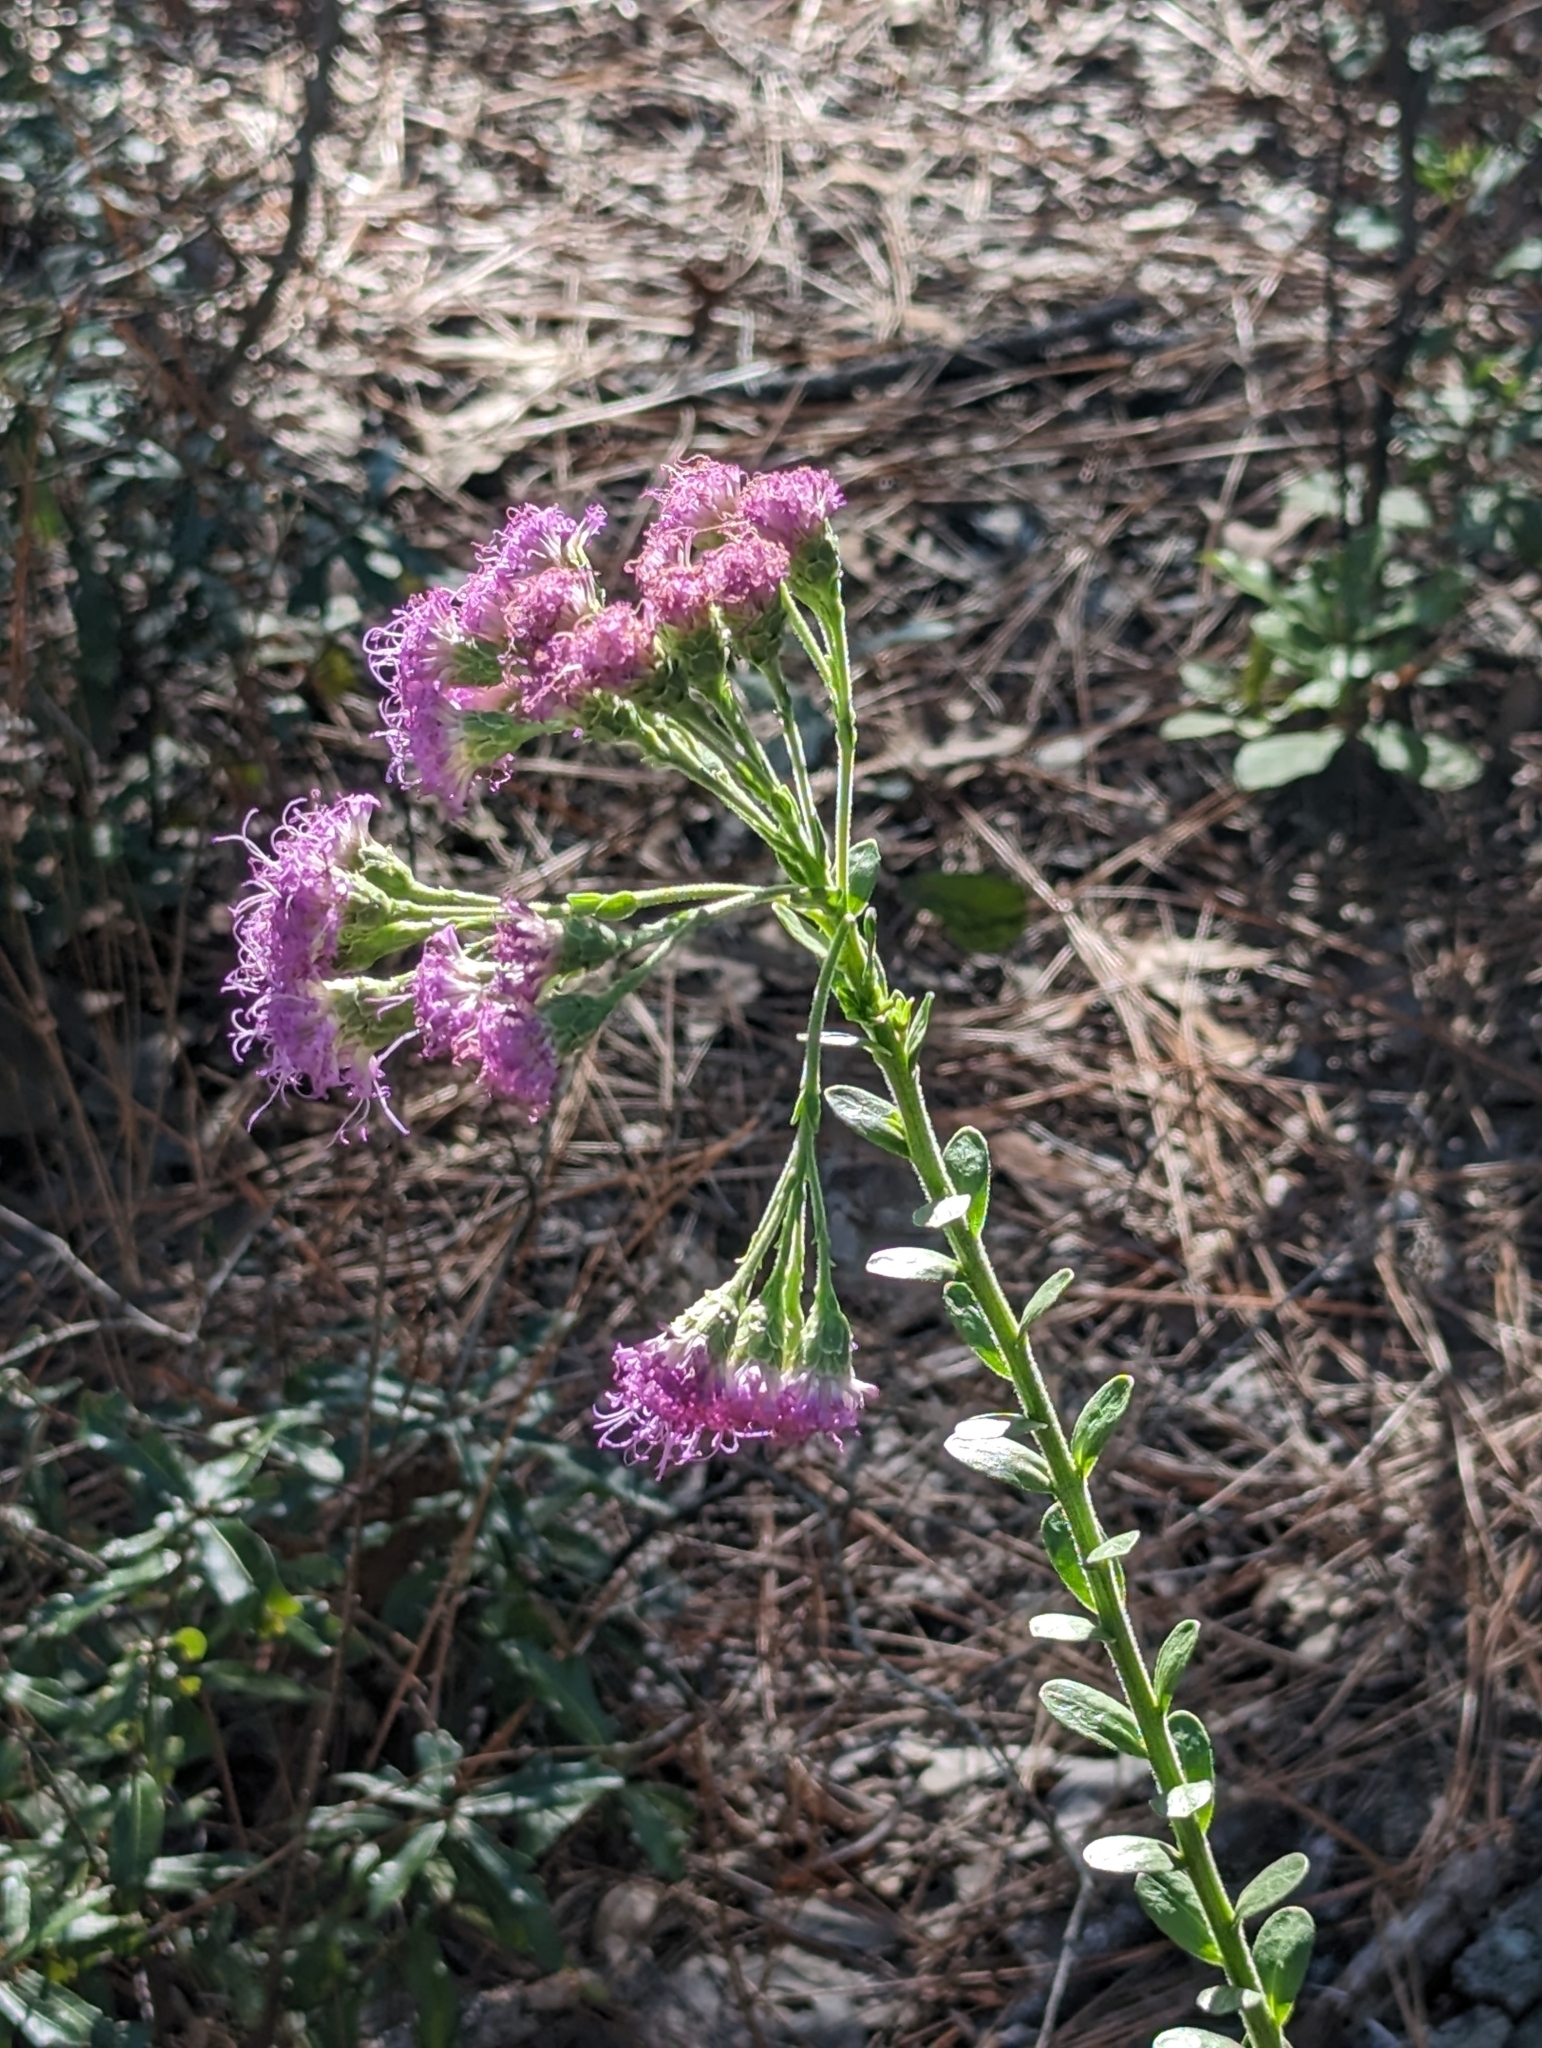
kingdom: Plantae
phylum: Tracheophyta
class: Magnoliopsida
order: Asterales
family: Asteraceae
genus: Carphephorus
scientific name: Carphephorus corymbosus
